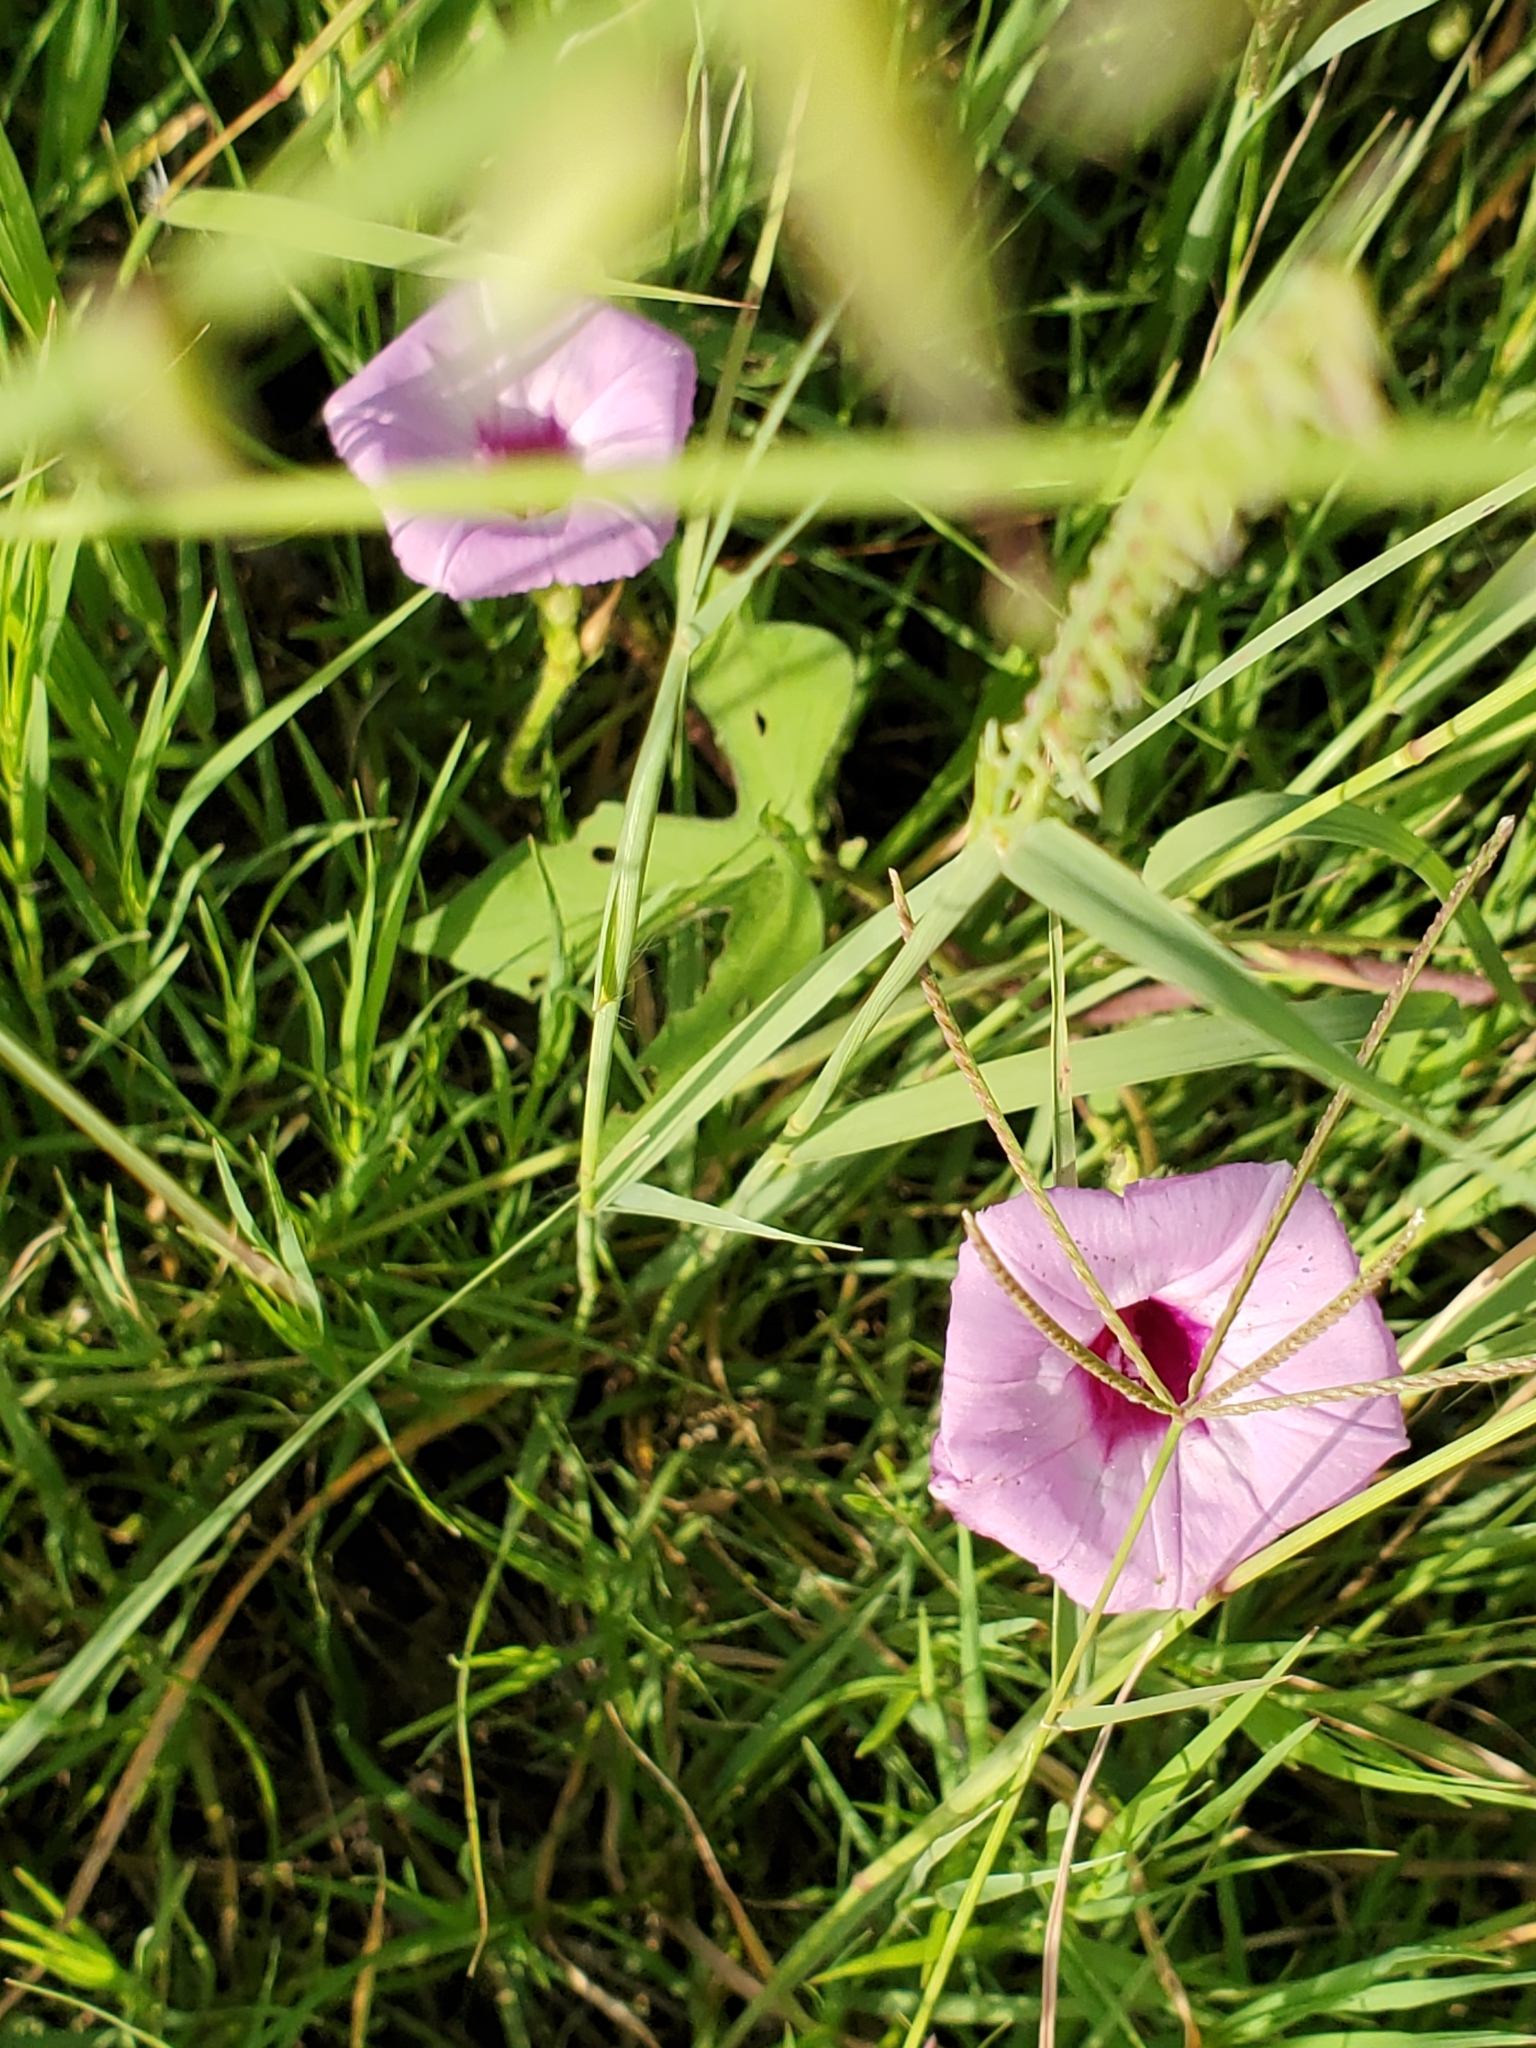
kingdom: Plantae
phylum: Tracheophyta
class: Magnoliopsida
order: Solanales
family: Convolvulaceae
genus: Ipomoea
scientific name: Ipomoea cordatotriloba
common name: Cotton morning glory
